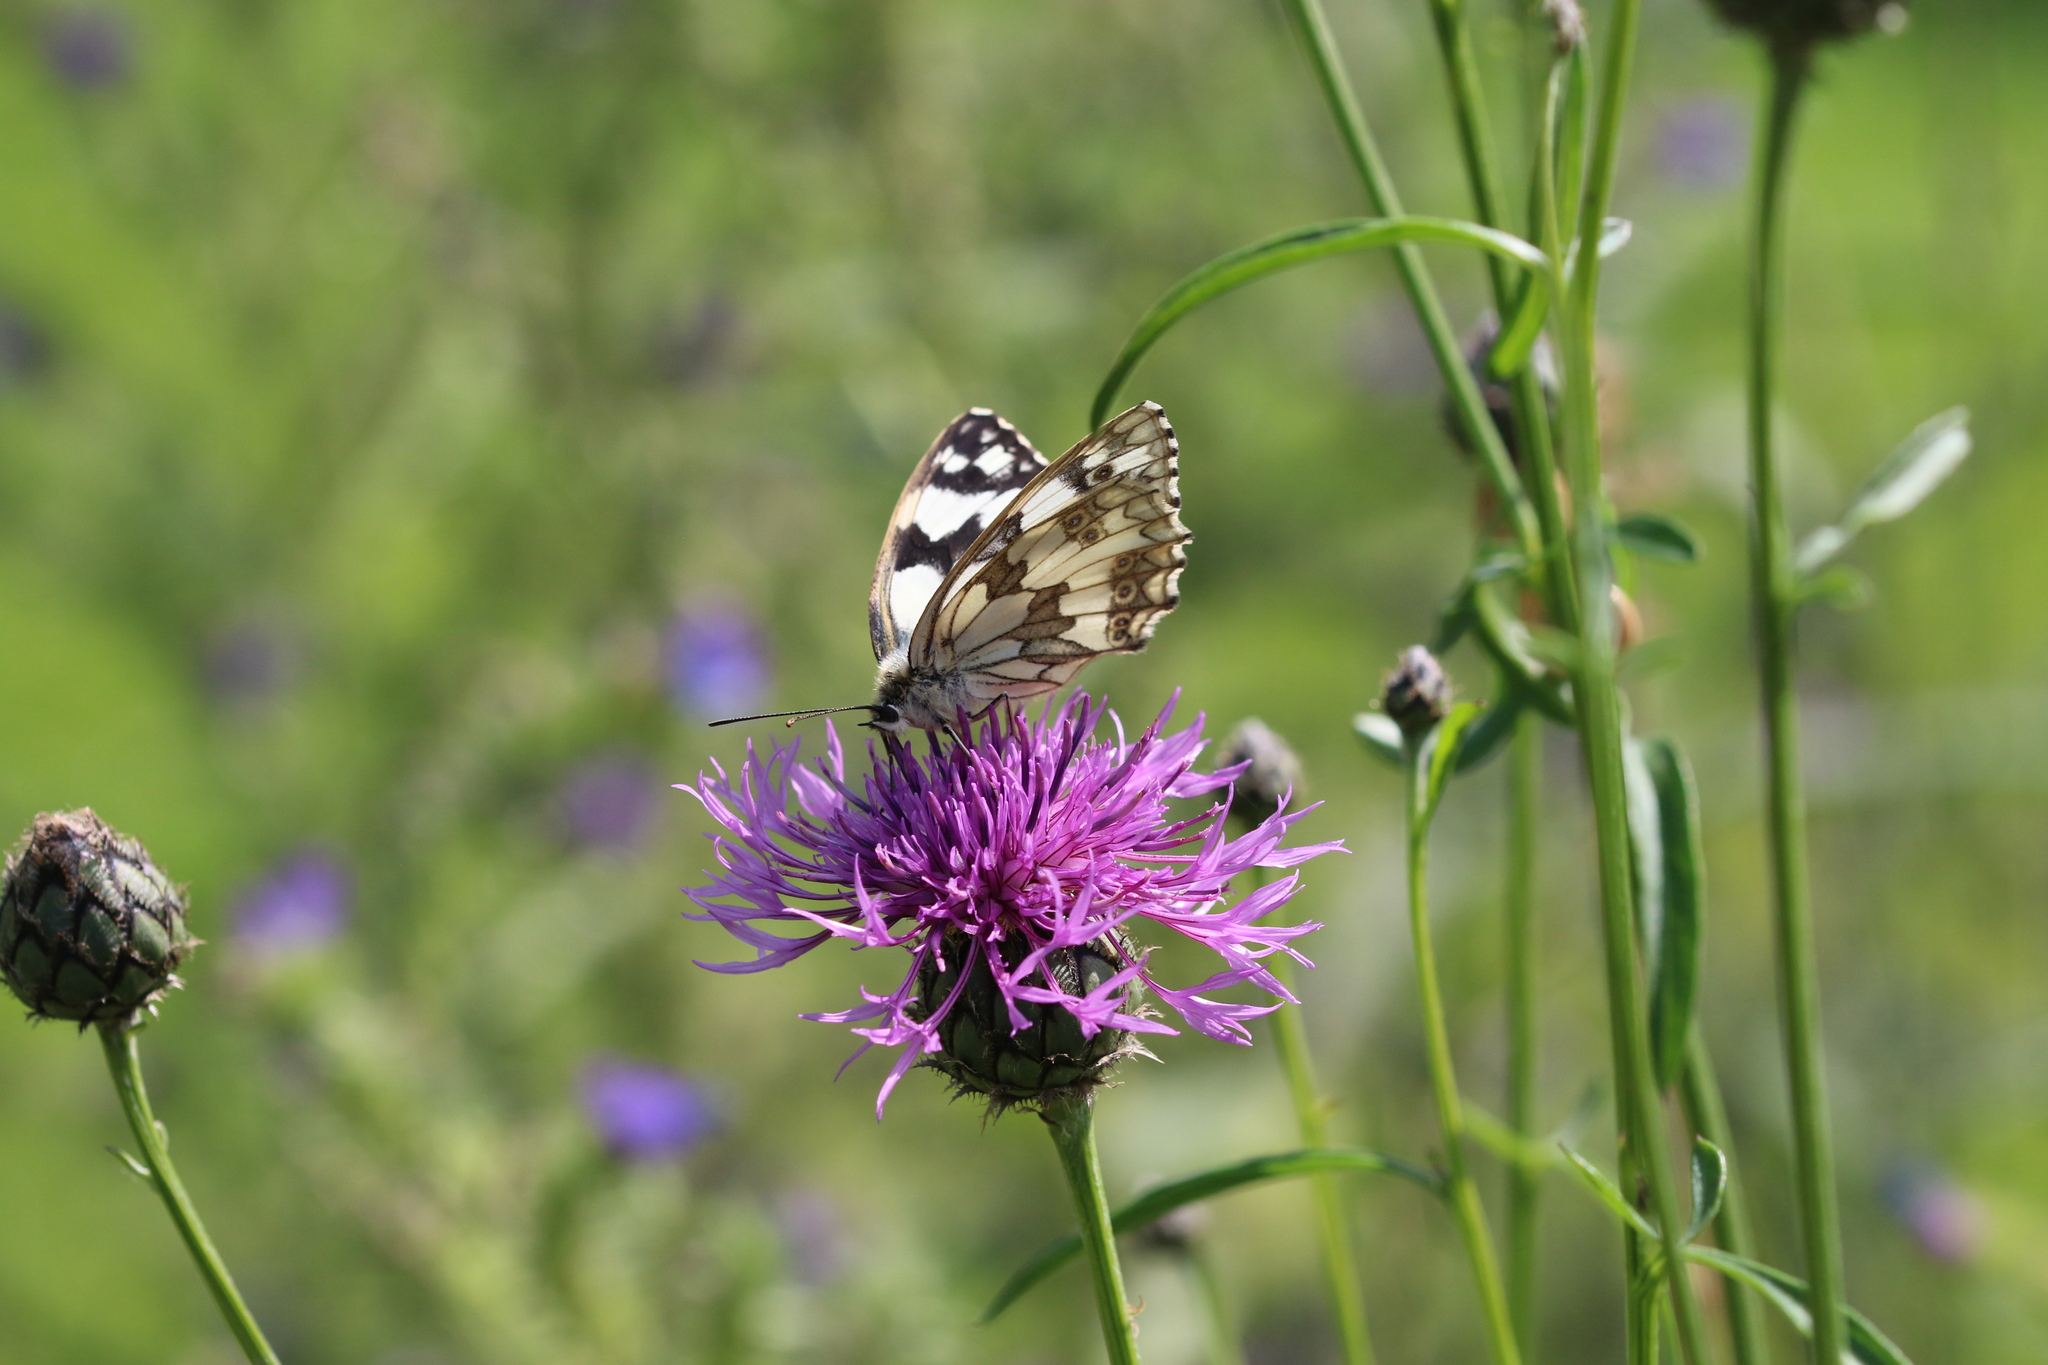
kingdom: Animalia
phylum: Arthropoda
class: Insecta
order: Lepidoptera
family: Nymphalidae
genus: Melanargia
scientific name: Melanargia galathea
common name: Marbled white
